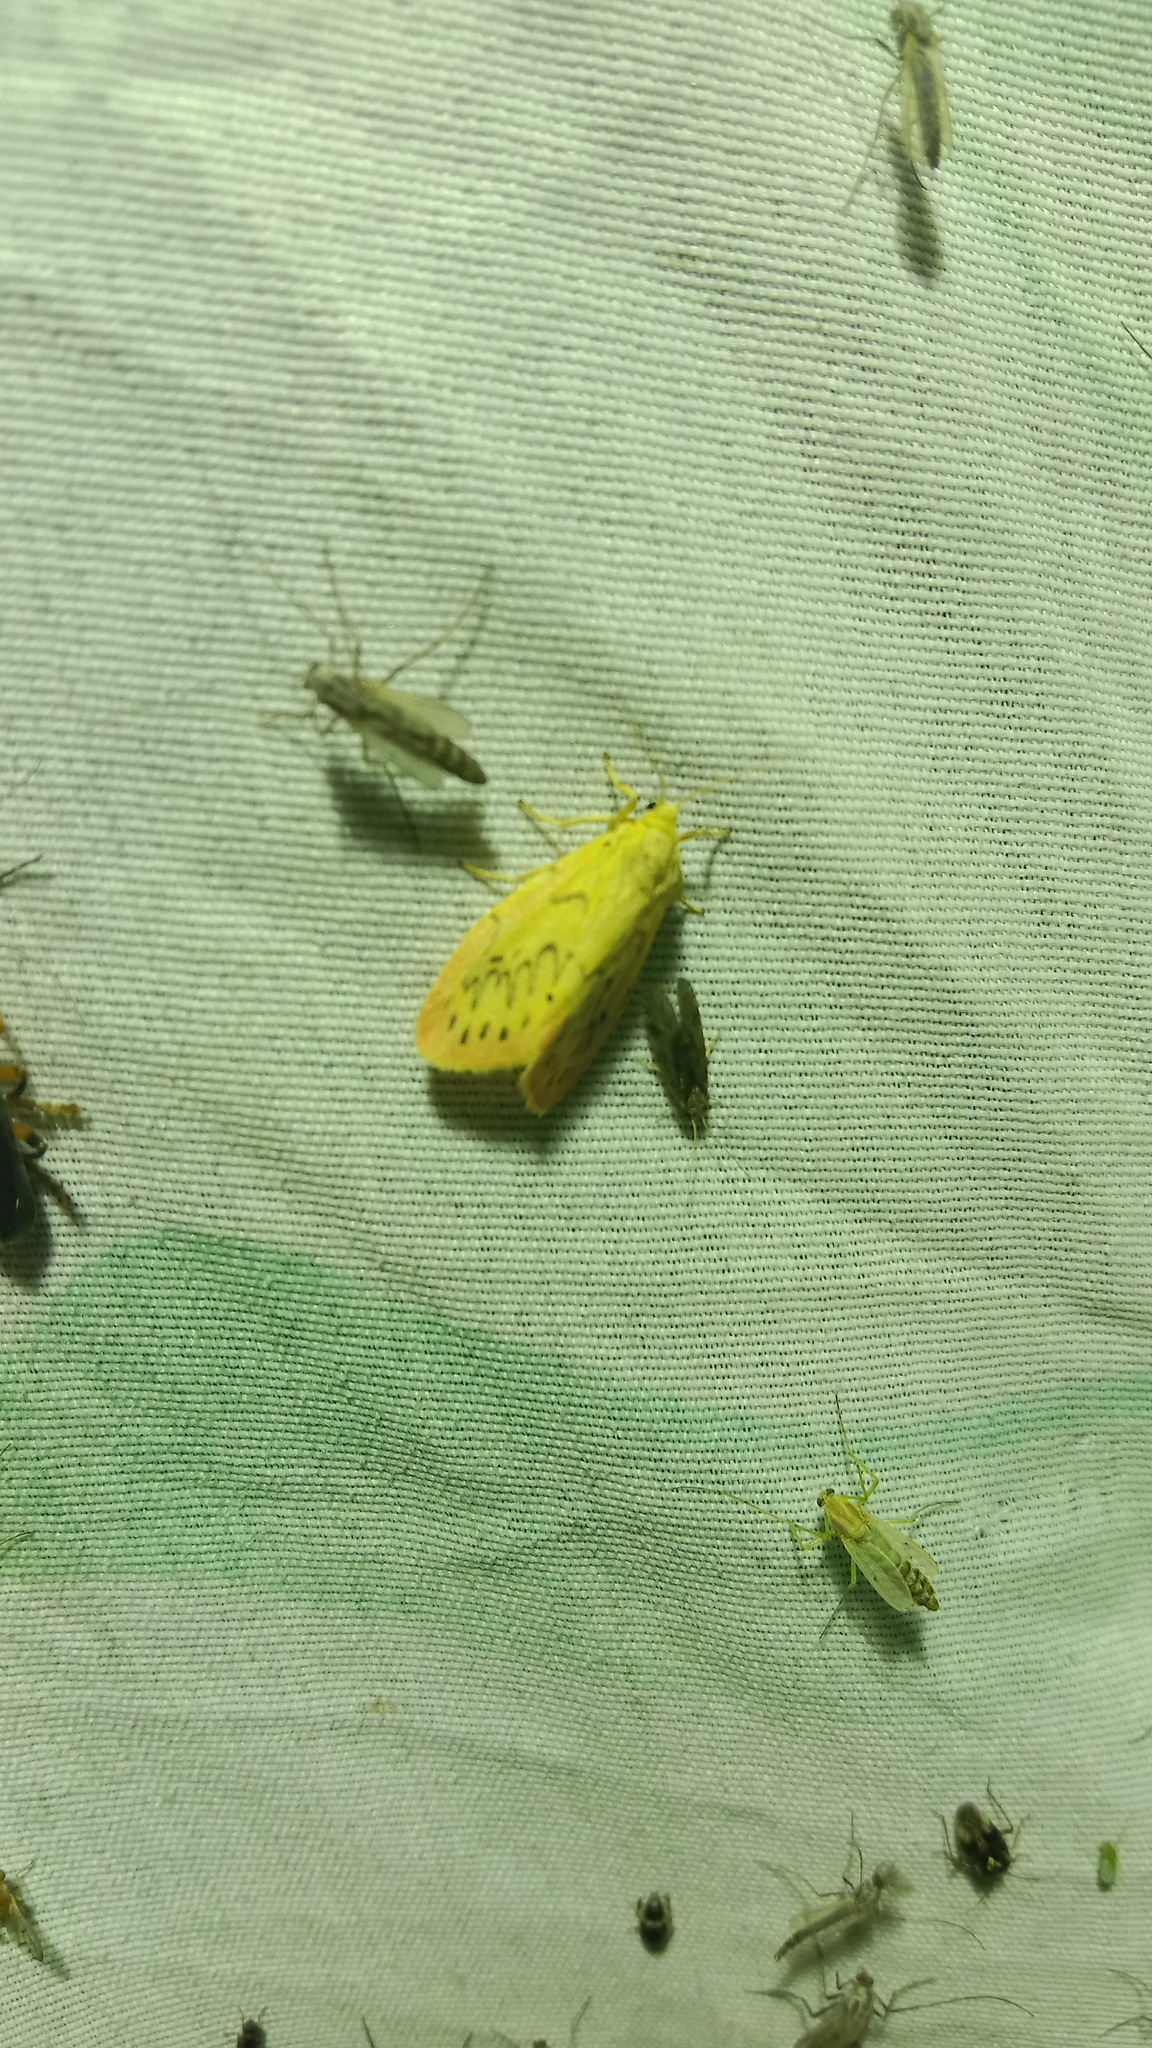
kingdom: Animalia
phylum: Arthropoda
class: Insecta
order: Lepidoptera
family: Erebidae
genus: Miltochrista
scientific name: Miltochrista miniata
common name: Rosy footman
